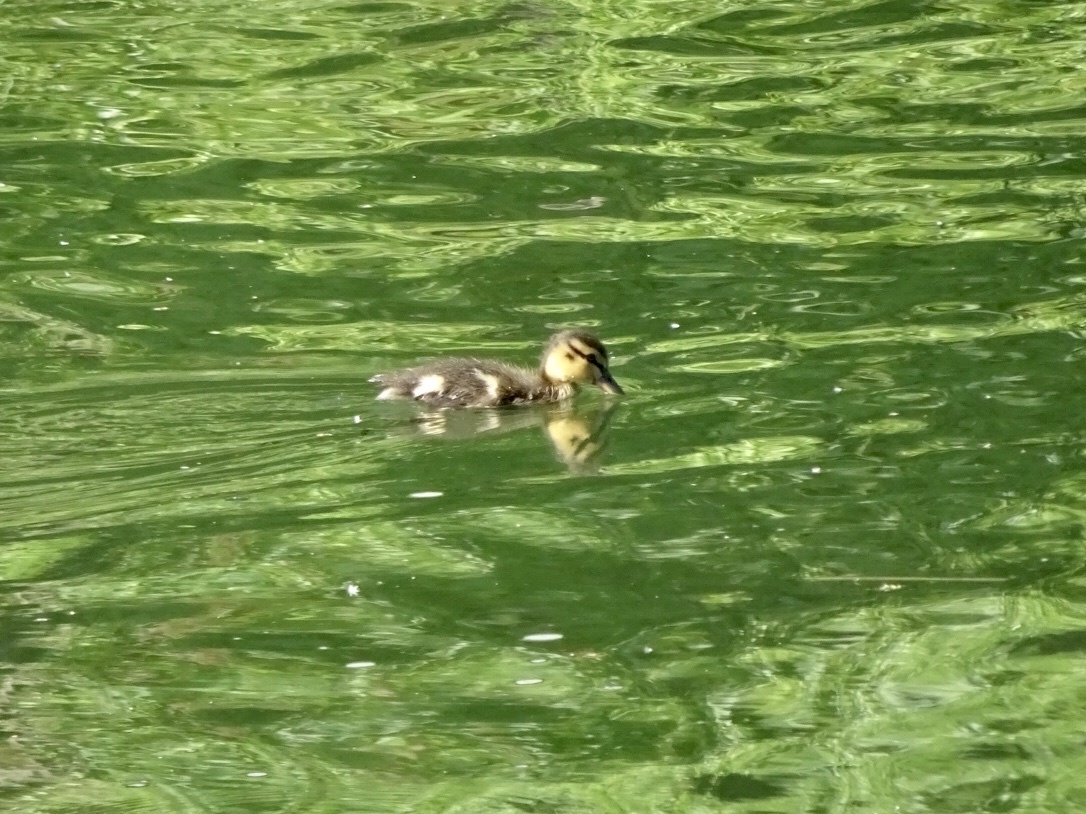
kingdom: Animalia
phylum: Chordata
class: Aves
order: Anseriformes
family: Anatidae
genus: Anas
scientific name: Anas platyrhynchos
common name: Mallard
